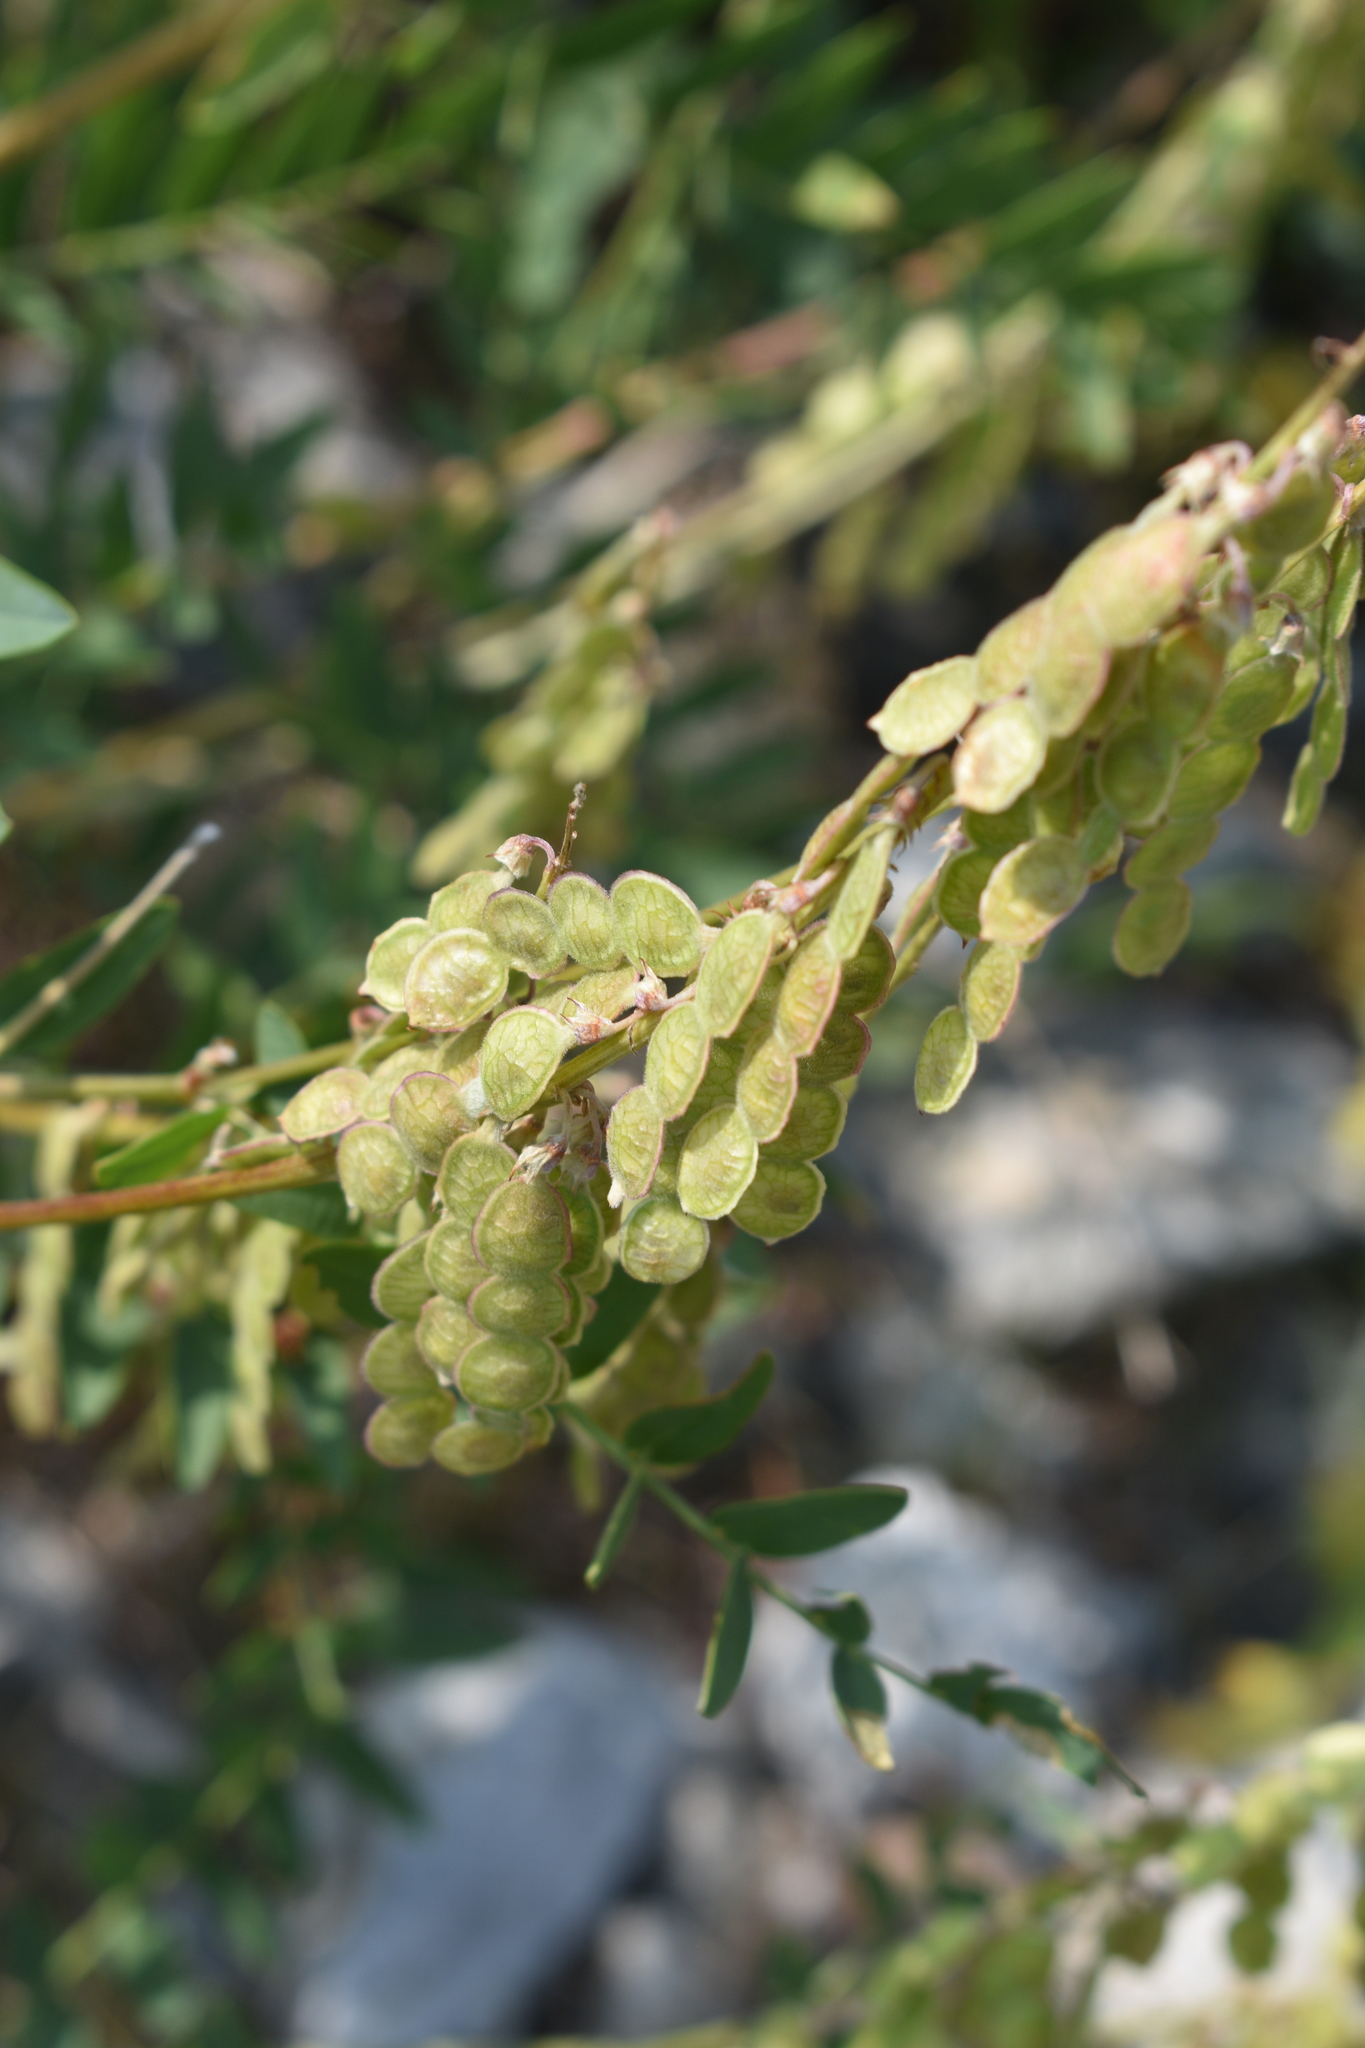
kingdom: Plantae
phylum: Tracheophyta
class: Magnoliopsida
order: Fabales
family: Fabaceae
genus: Hedysarum
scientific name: Hedysarum occidentale
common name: Western hedysarum
